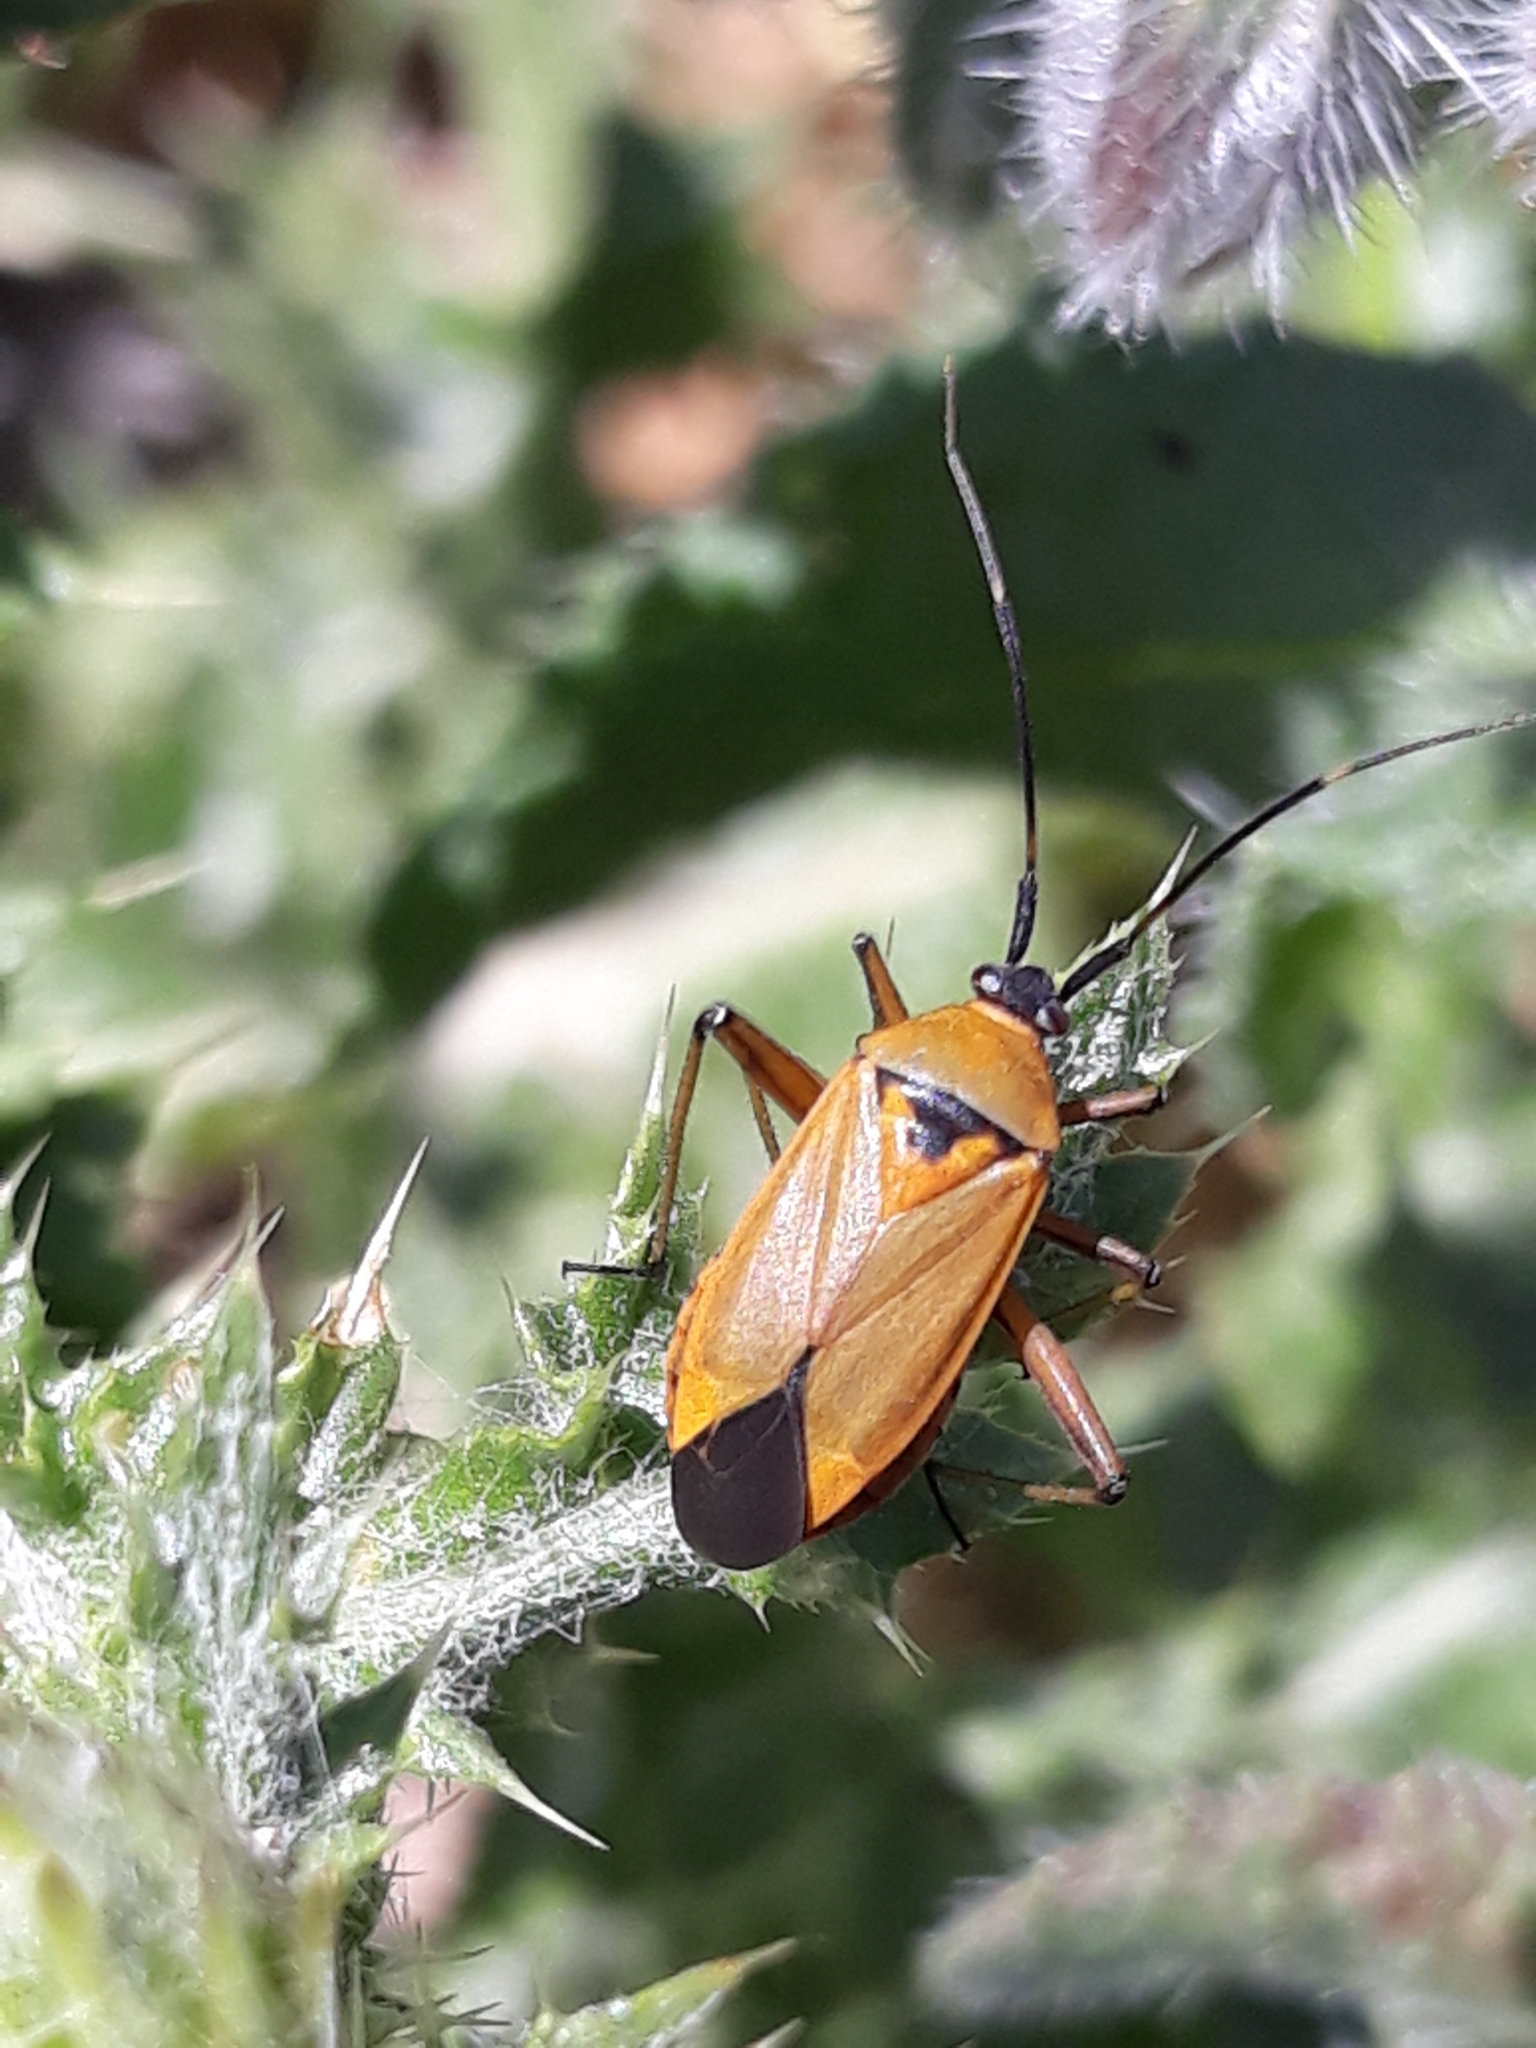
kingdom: Animalia
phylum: Arthropoda
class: Insecta
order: Hemiptera
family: Miridae
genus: Calocoris
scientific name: Calocoris nemoralis
